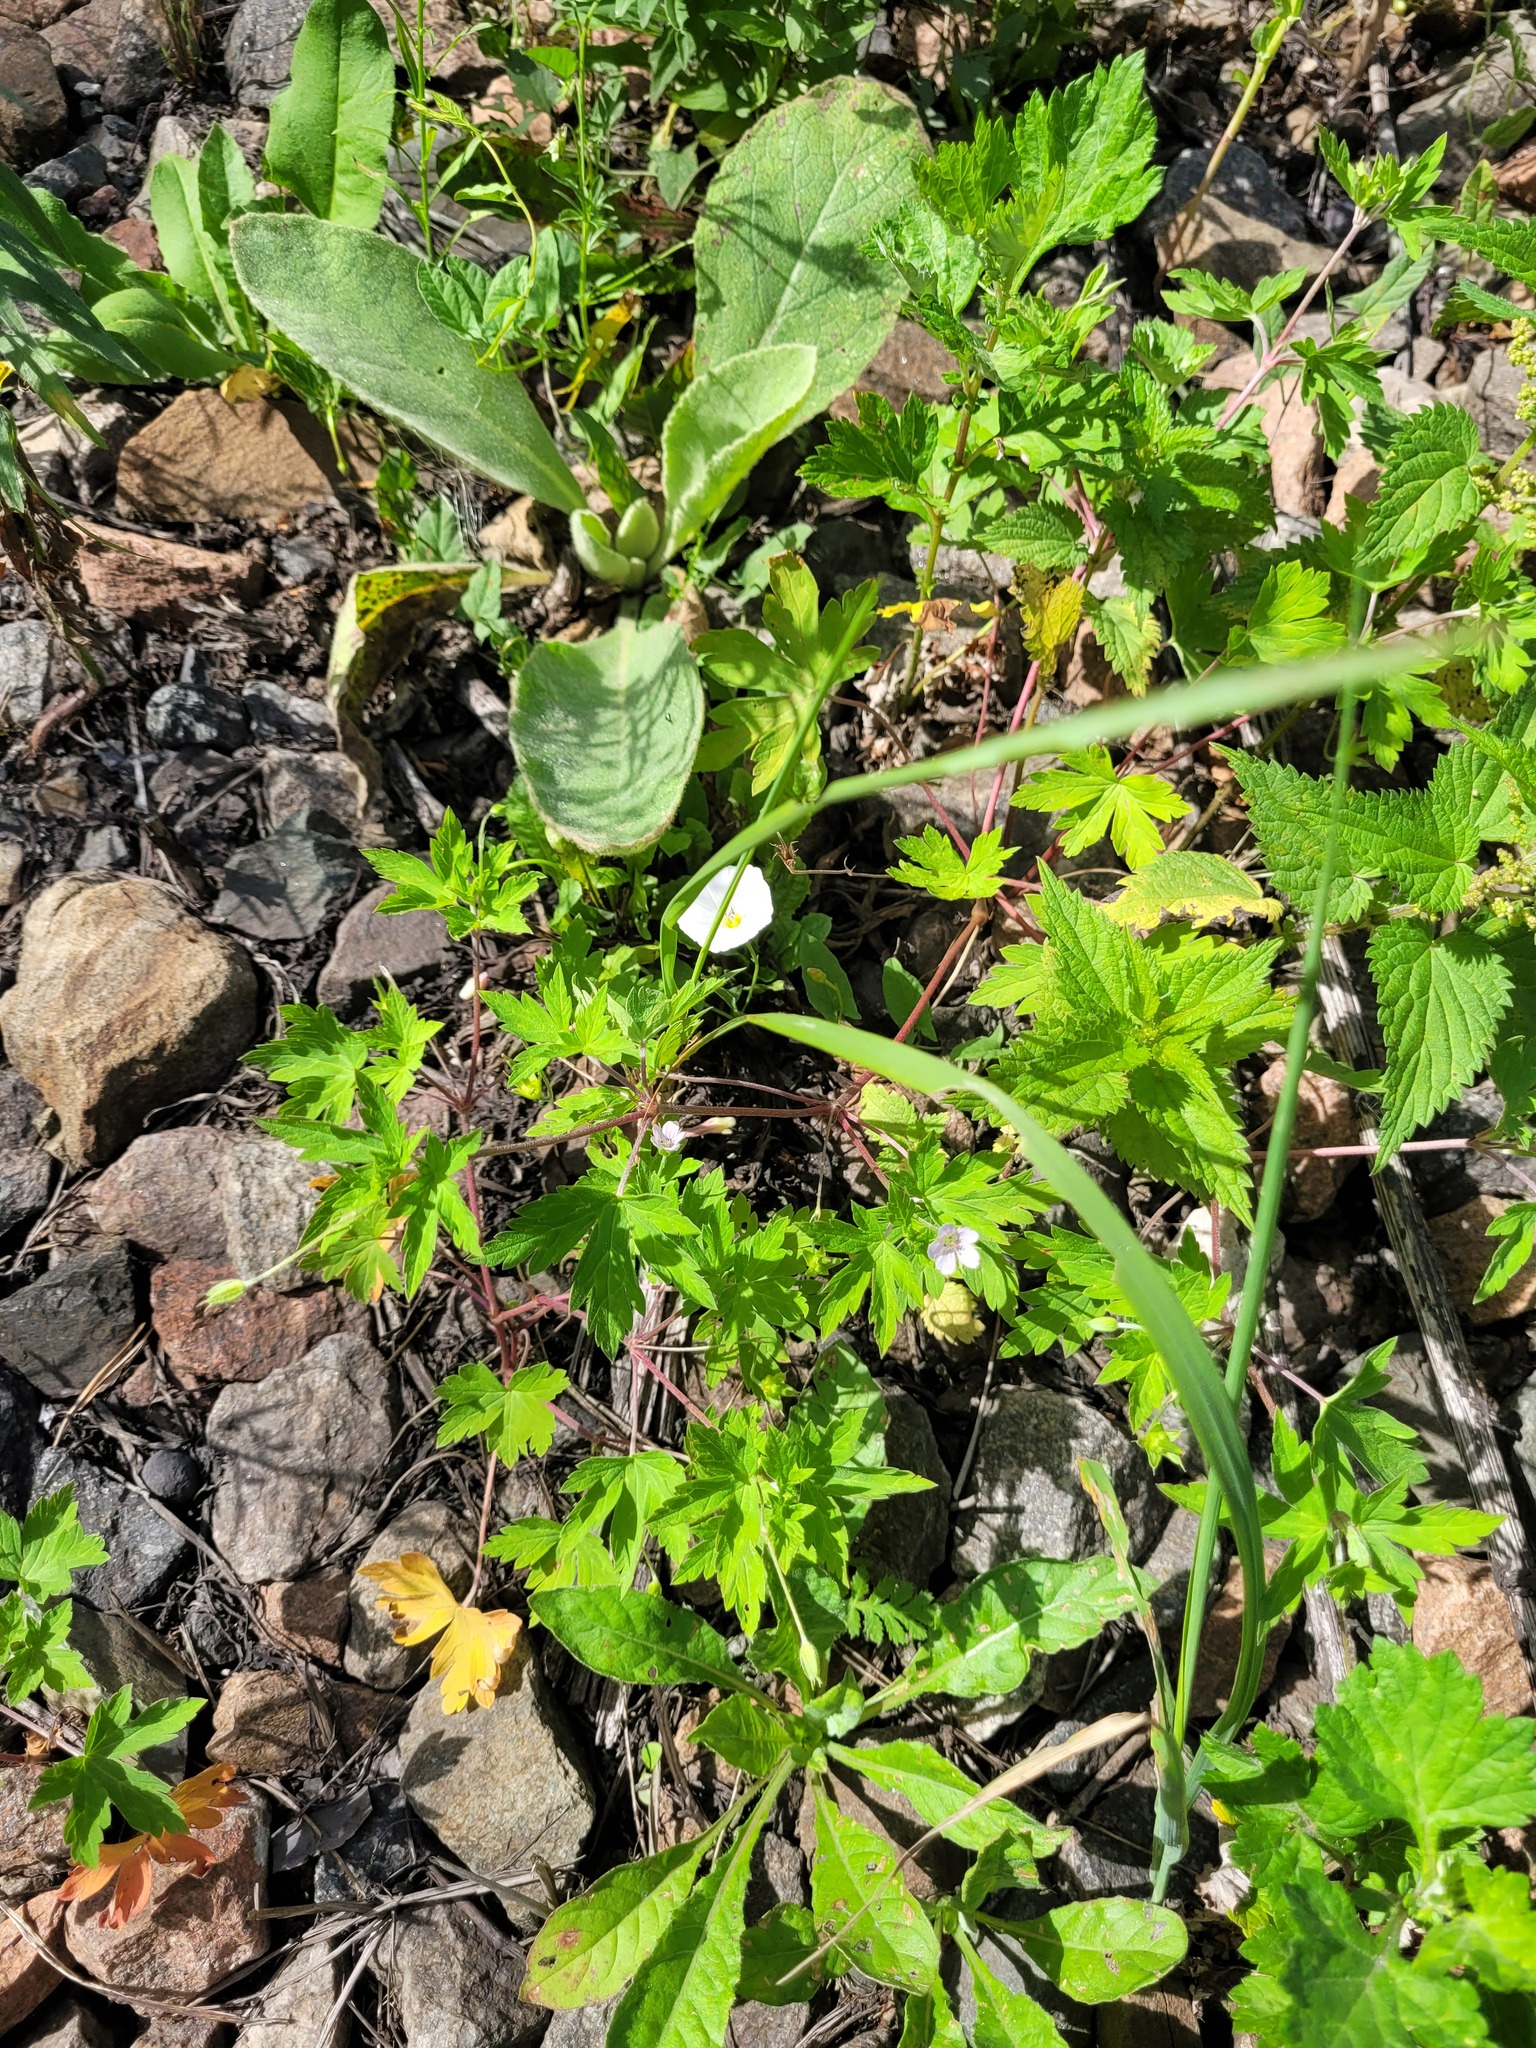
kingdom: Plantae
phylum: Tracheophyta
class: Magnoliopsida
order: Geraniales
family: Geraniaceae
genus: Geranium
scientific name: Geranium sibiricum
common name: Siberian crane's-bill
